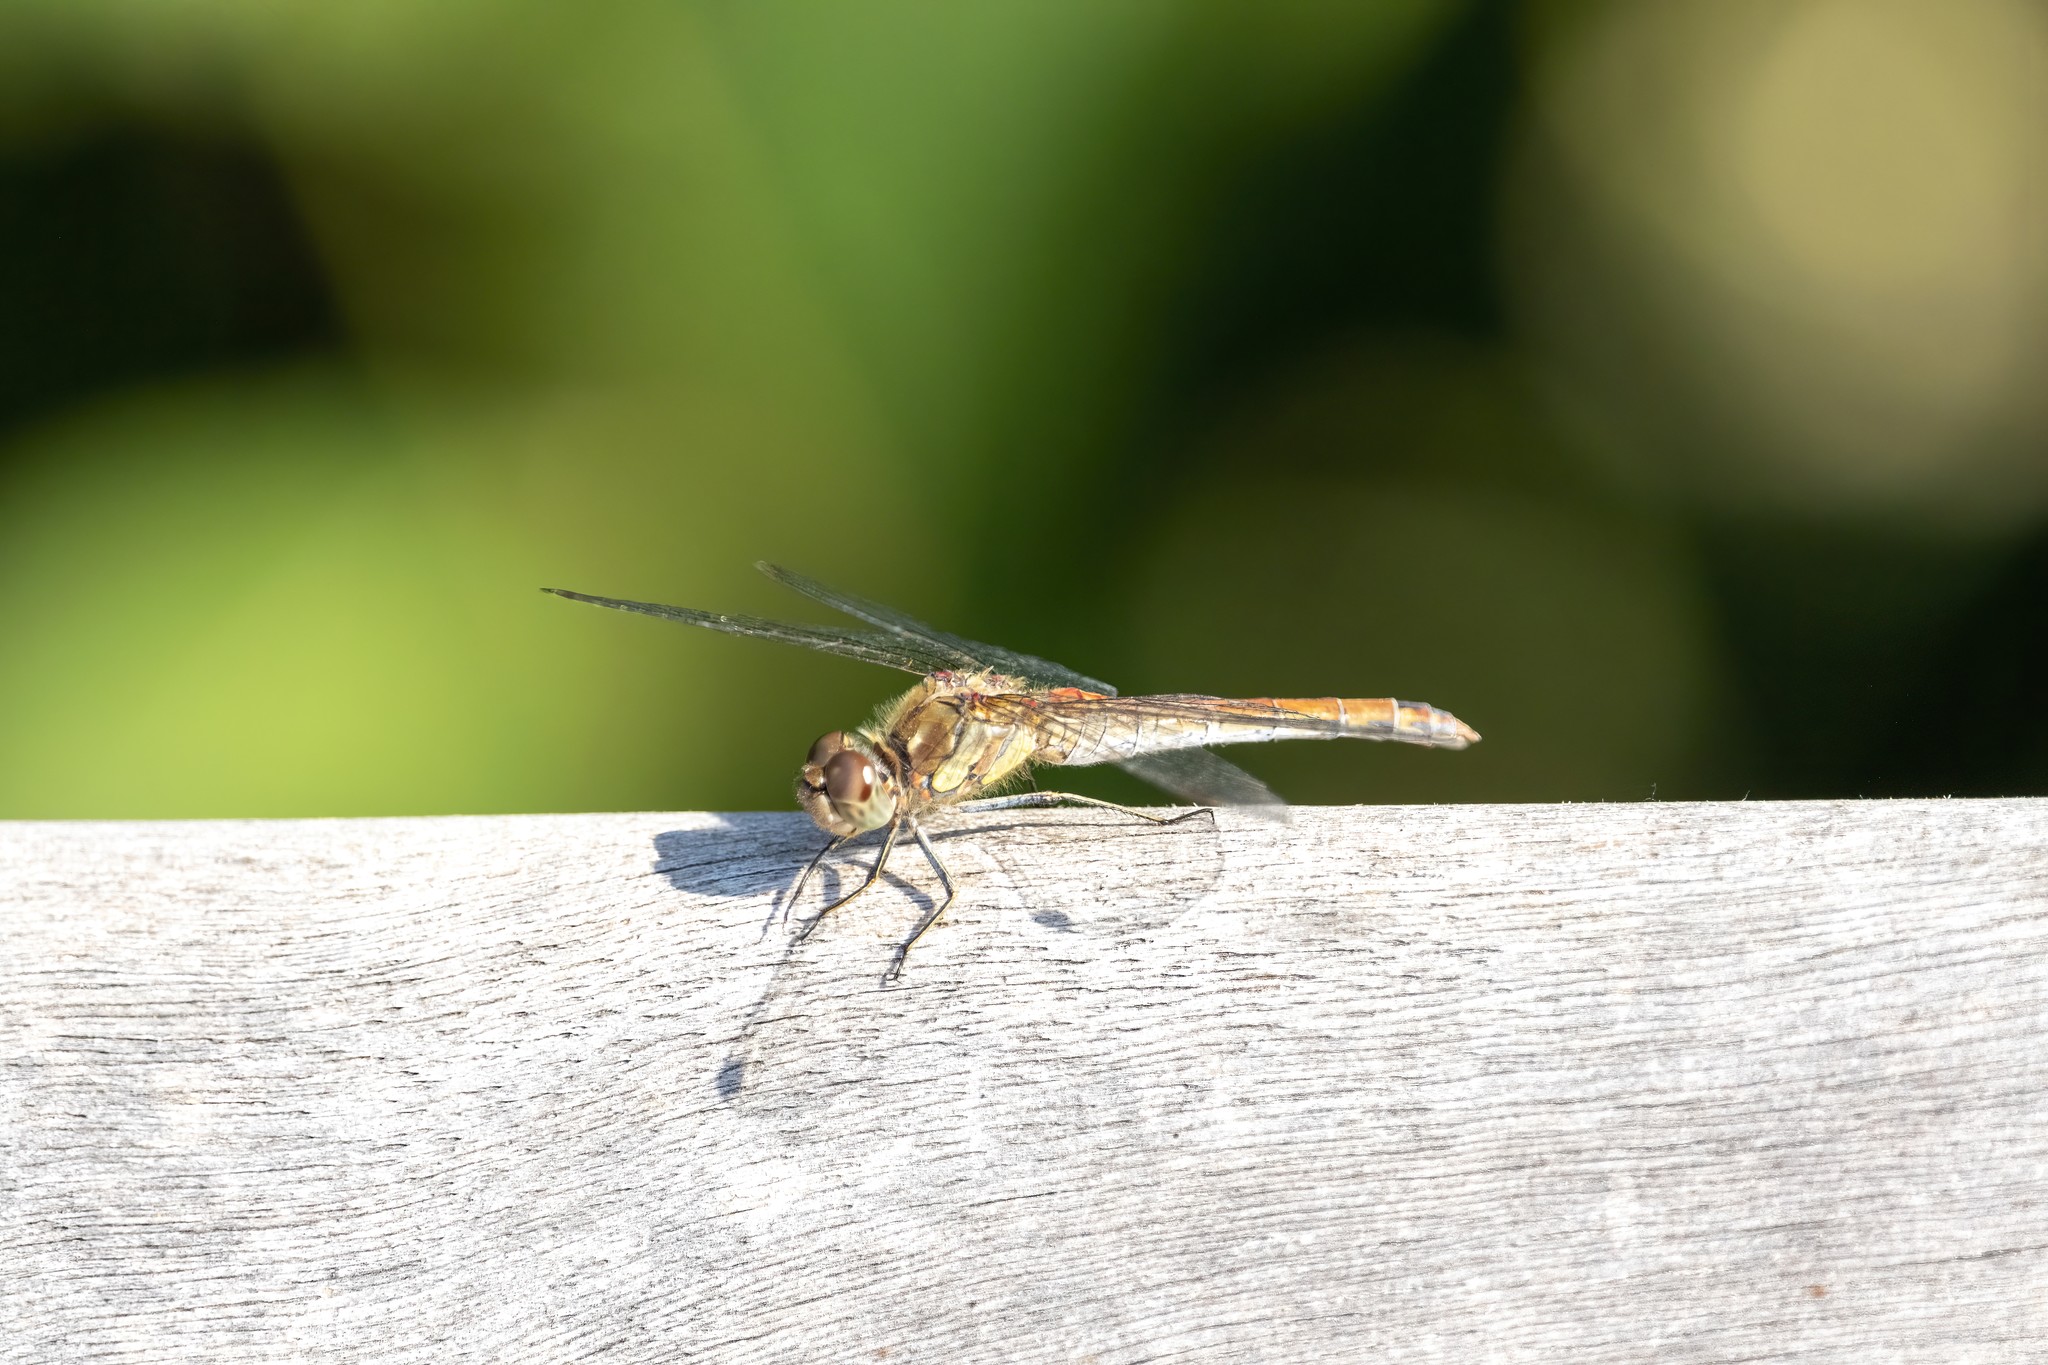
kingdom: Animalia
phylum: Arthropoda
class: Insecta
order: Odonata
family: Libellulidae
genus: Sympetrum
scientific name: Sympetrum striolatum
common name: Common darter
